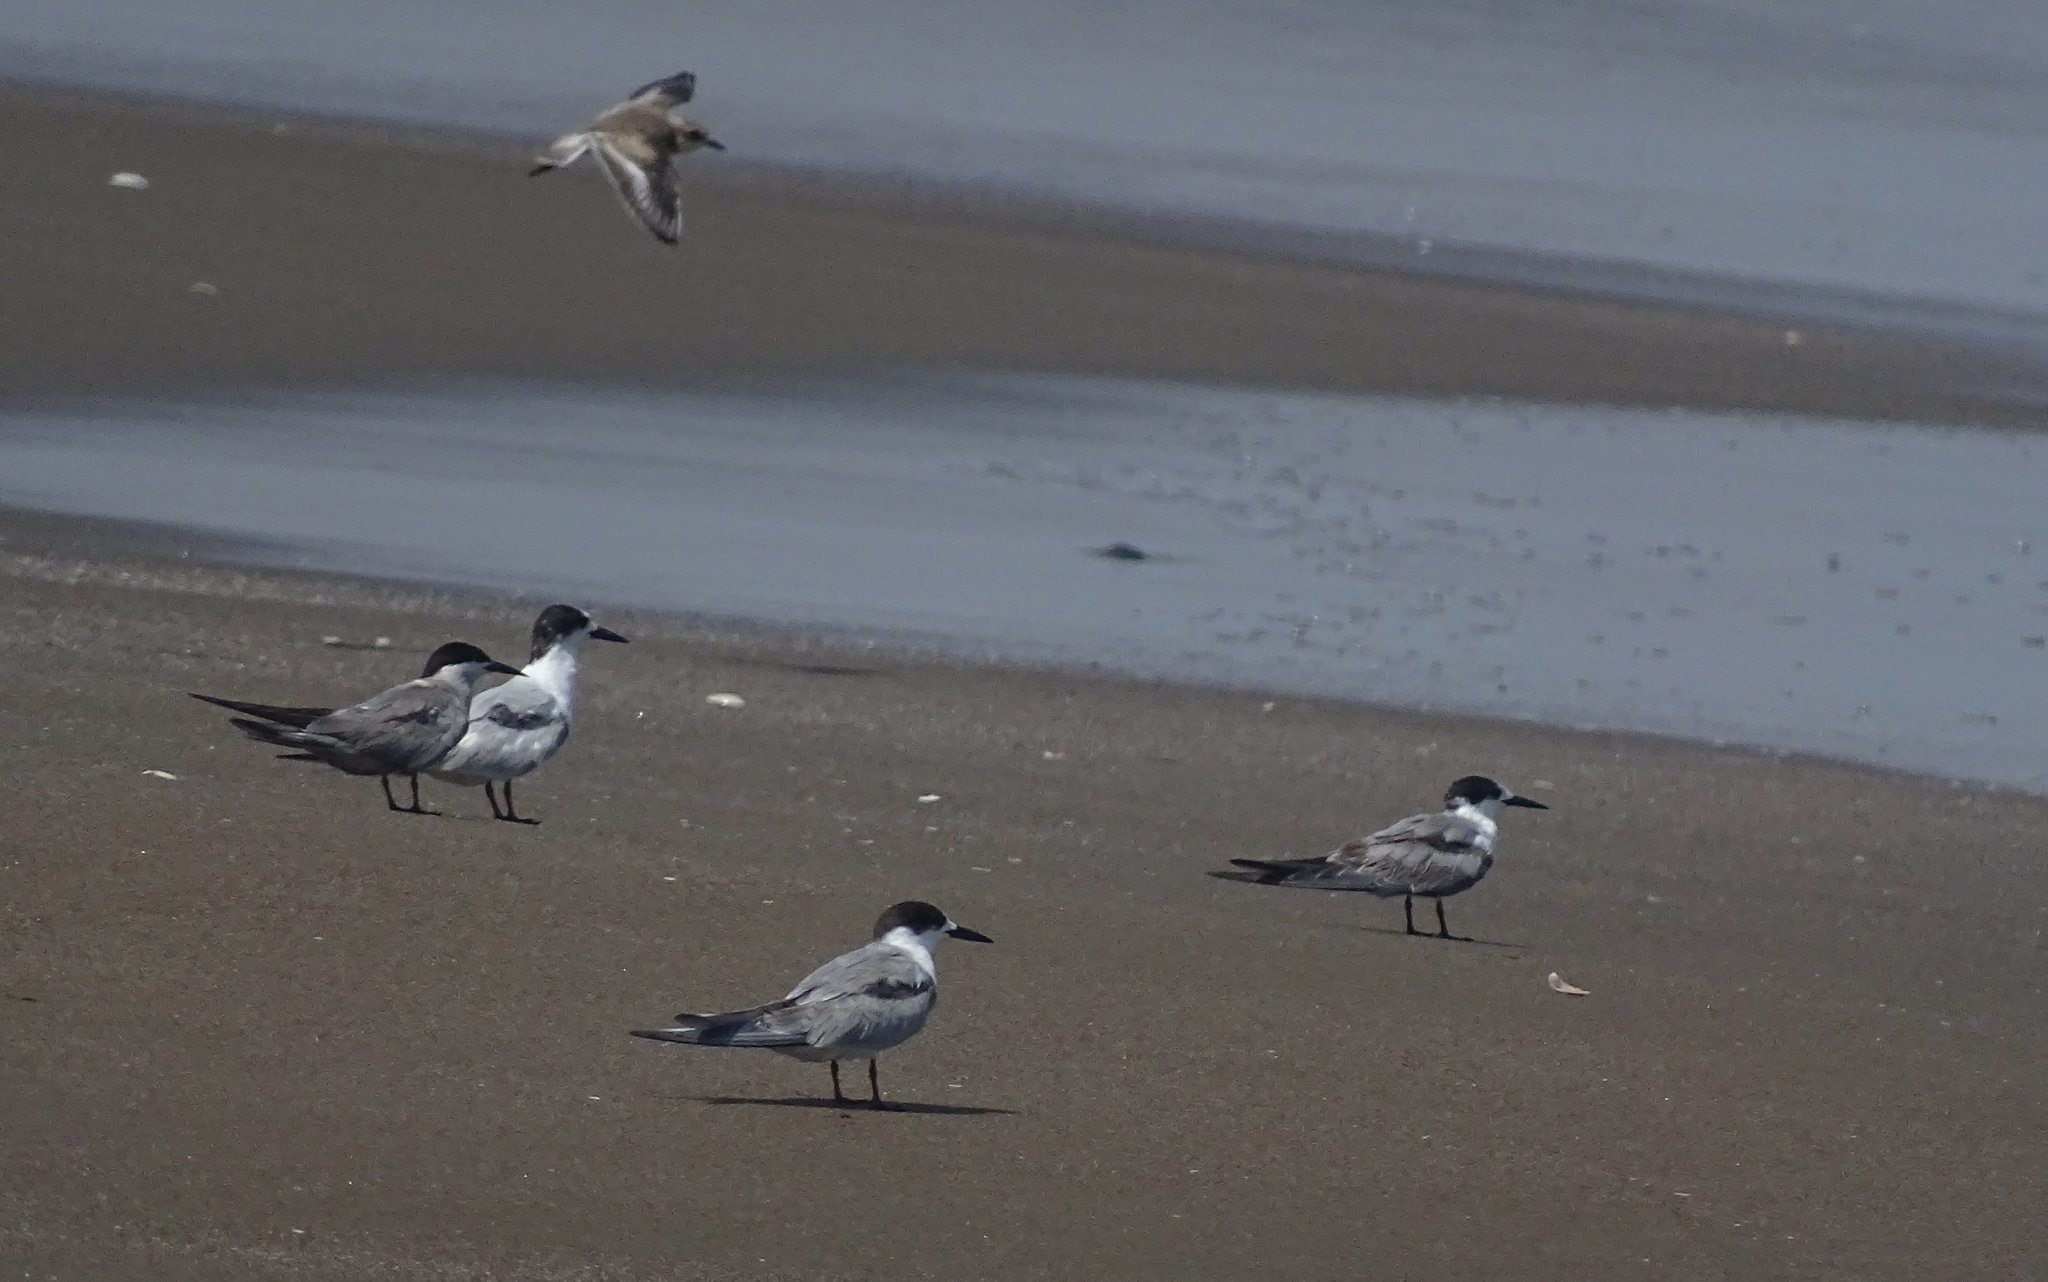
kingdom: Animalia
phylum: Chordata
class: Aves
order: Charadriiformes
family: Laridae
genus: Sterna
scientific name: Sterna hirundo
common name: Common tern
